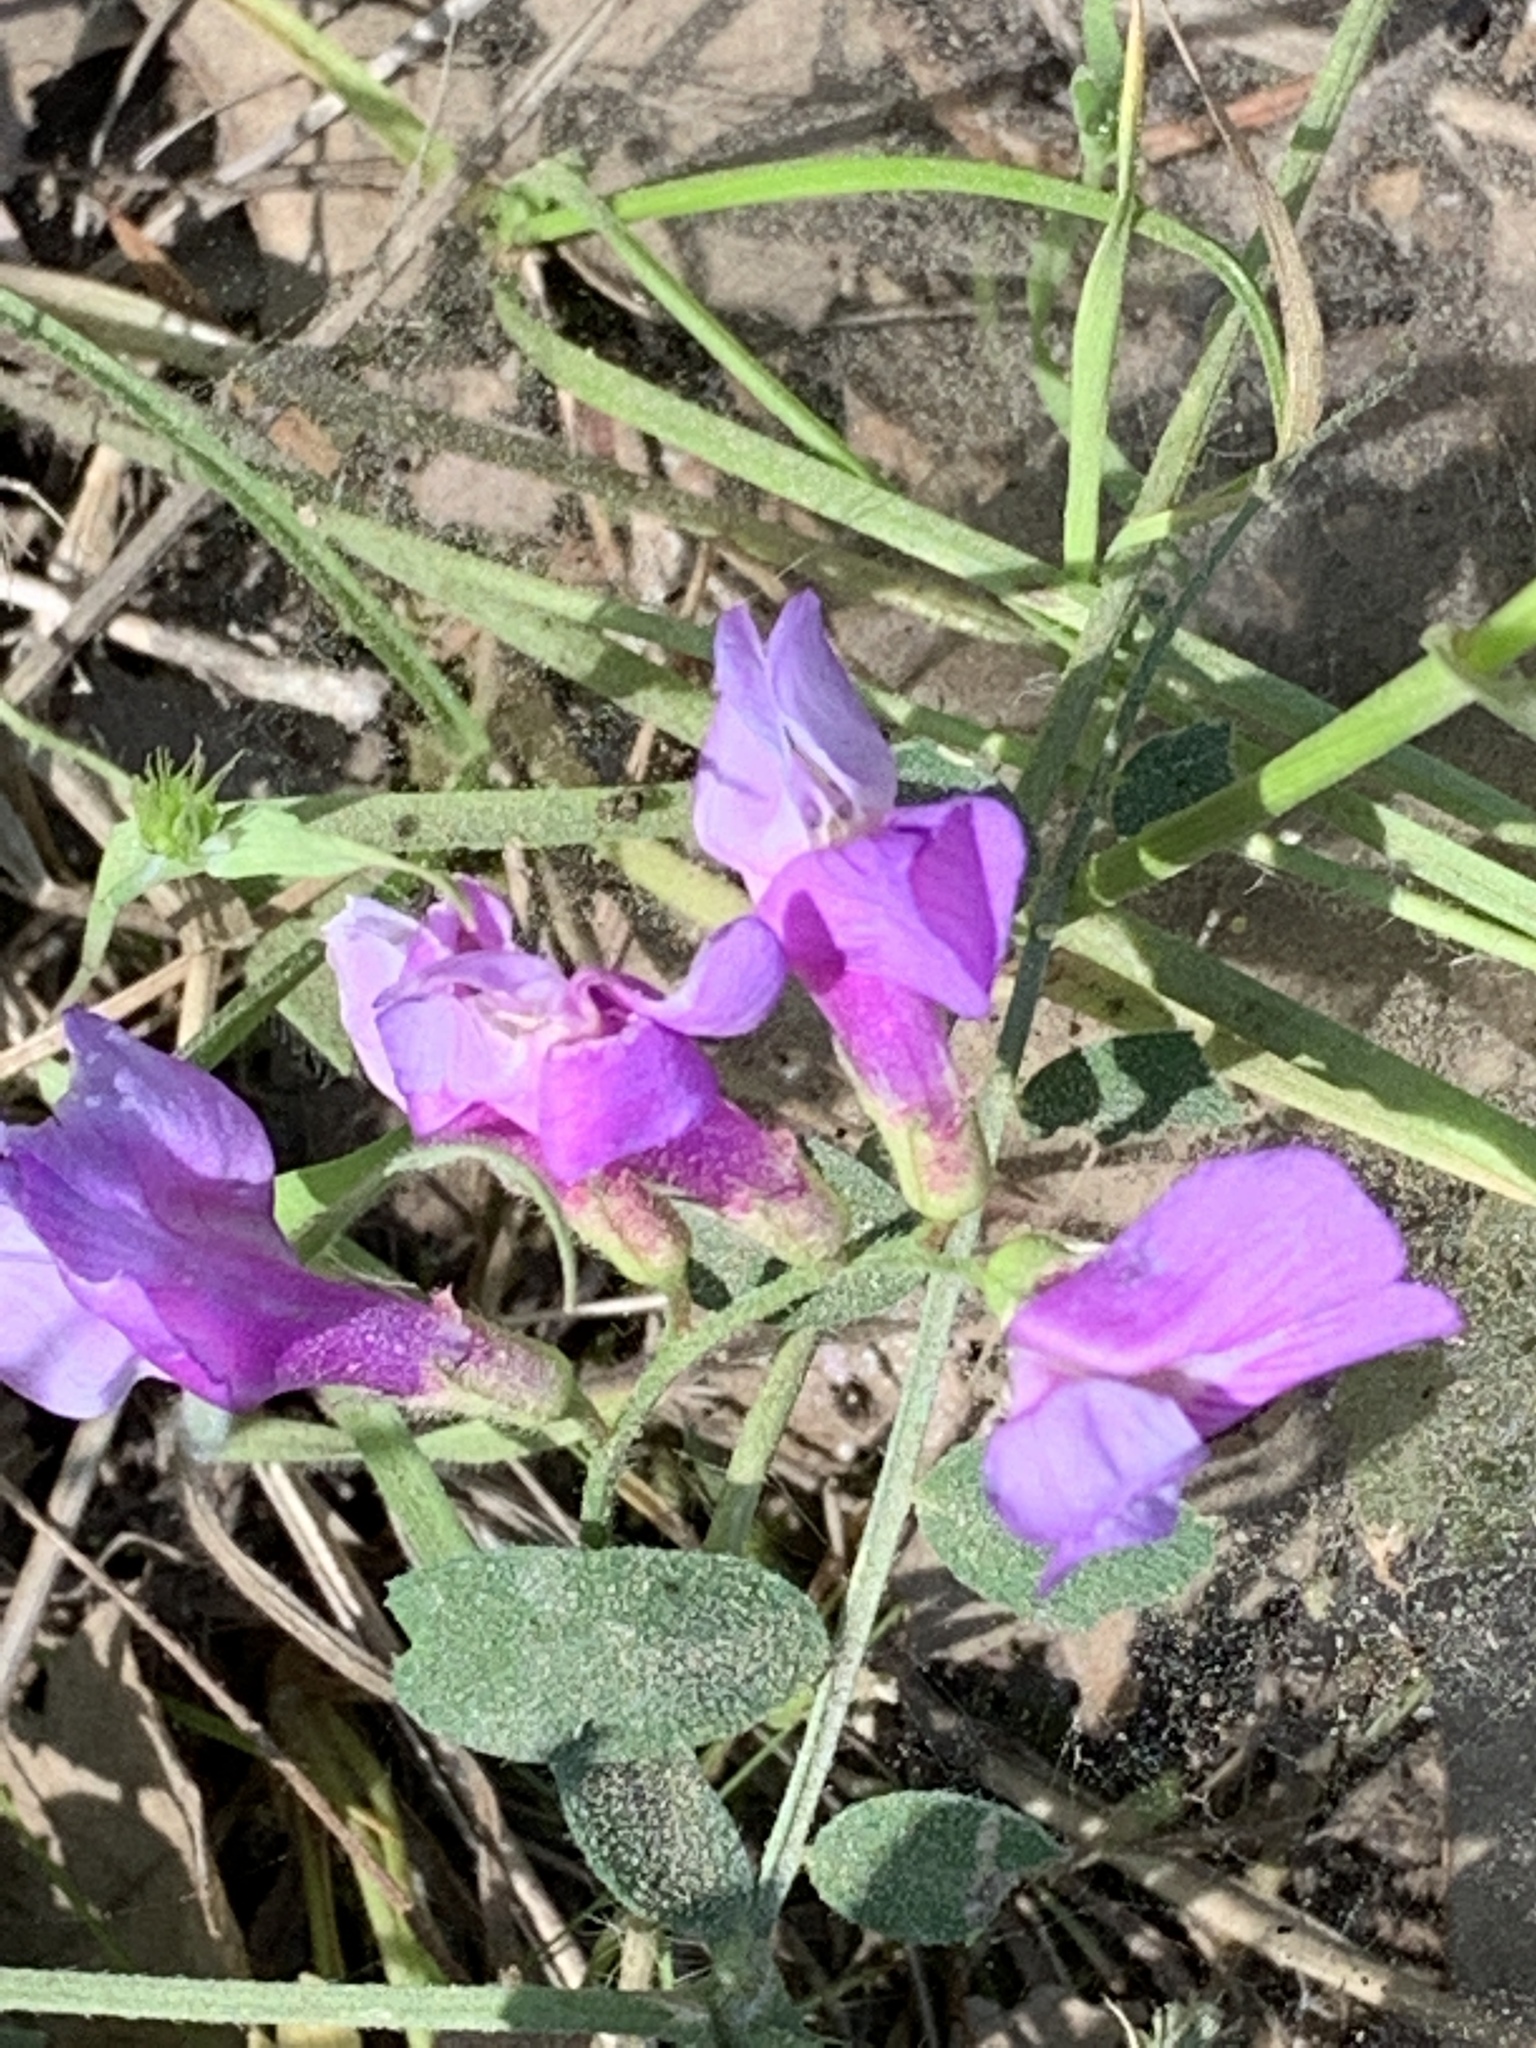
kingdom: Plantae
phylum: Tracheophyta
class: Magnoliopsida
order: Fabales
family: Fabaceae
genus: Vicia
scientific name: Vicia americana
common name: American vetch
